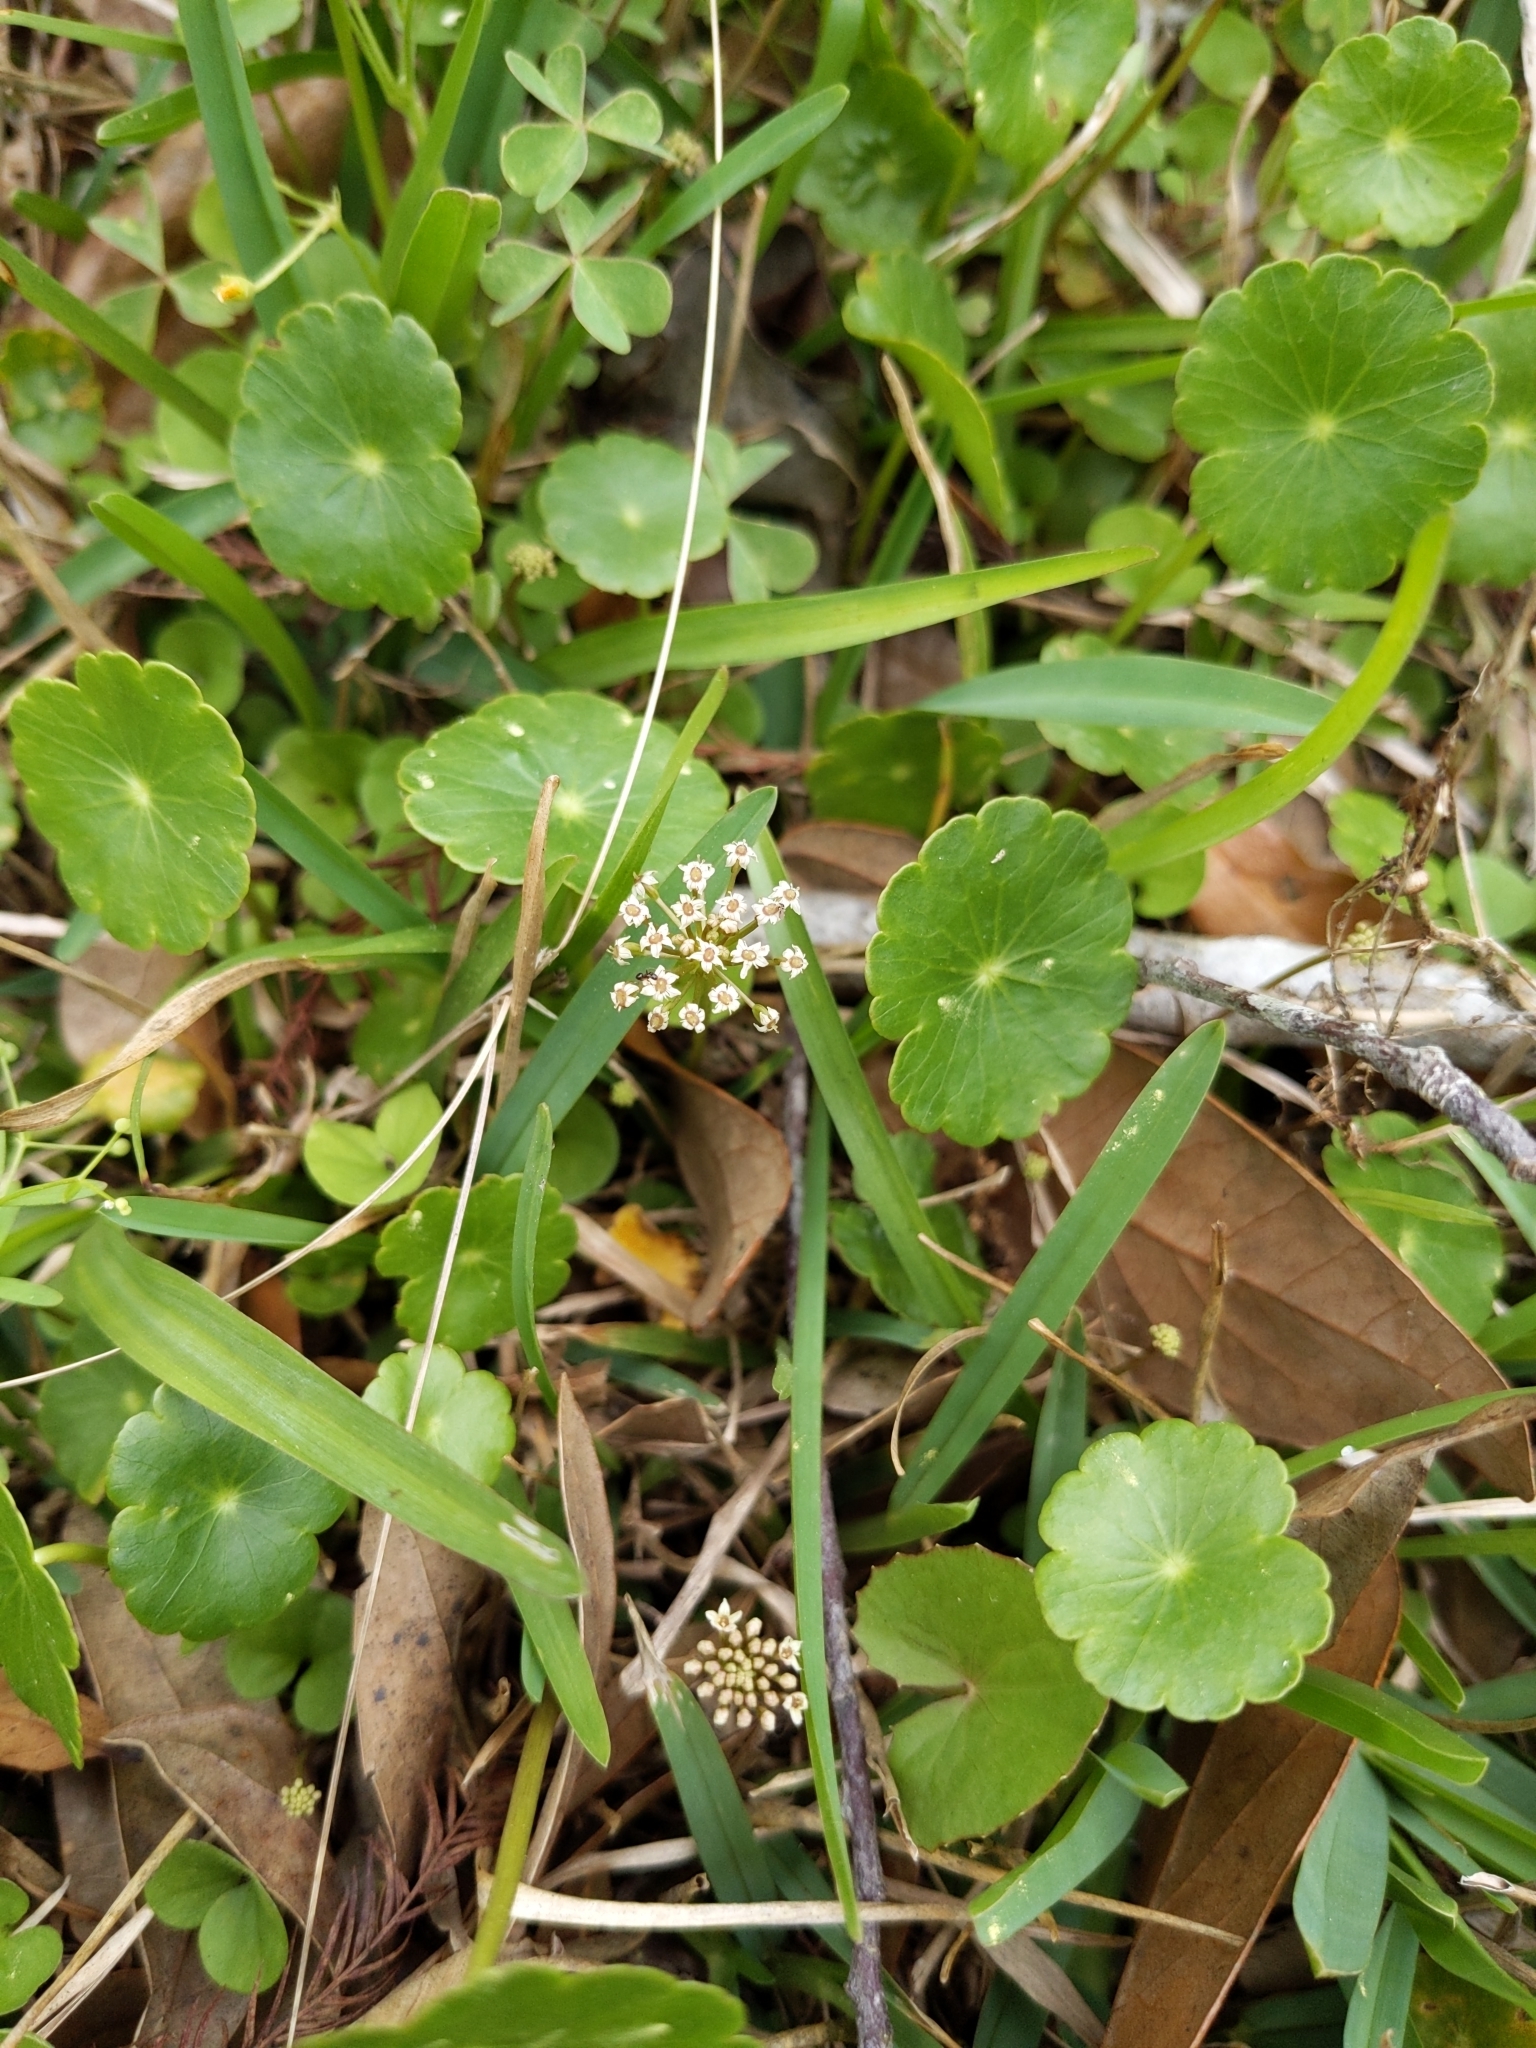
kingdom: Plantae
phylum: Tracheophyta
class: Magnoliopsida
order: Apiales
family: Araliaceae
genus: Hydrocotyle
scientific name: Hydrocotyle umbellata
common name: Water pennywort
